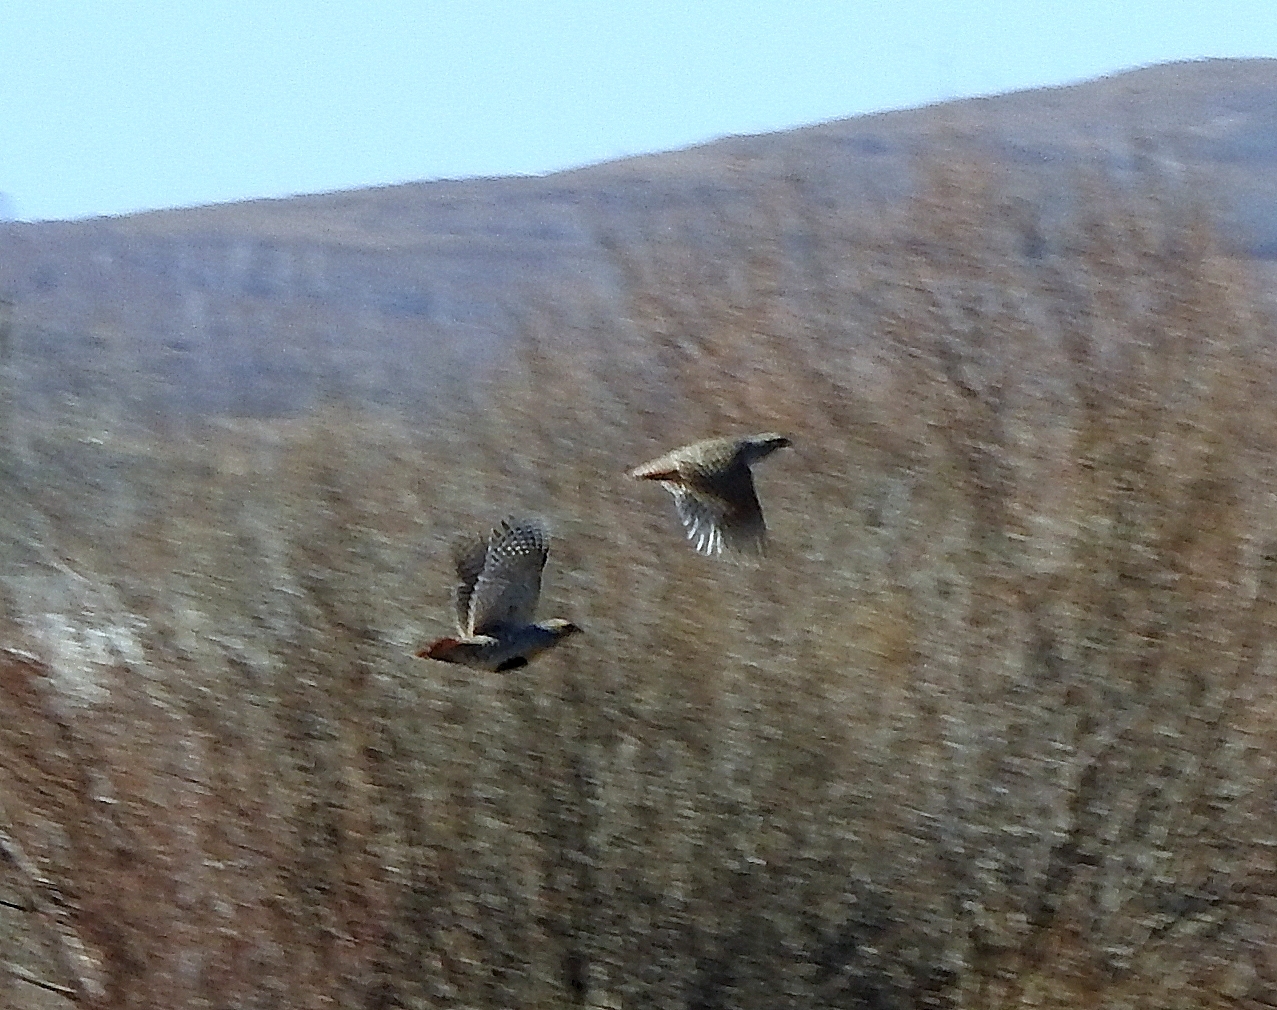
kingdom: Animalia
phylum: Chordata
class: Aves
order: Galliformes
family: Phasianidae
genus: Perdix
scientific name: Perdix dauurica
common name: Daurian partridge
